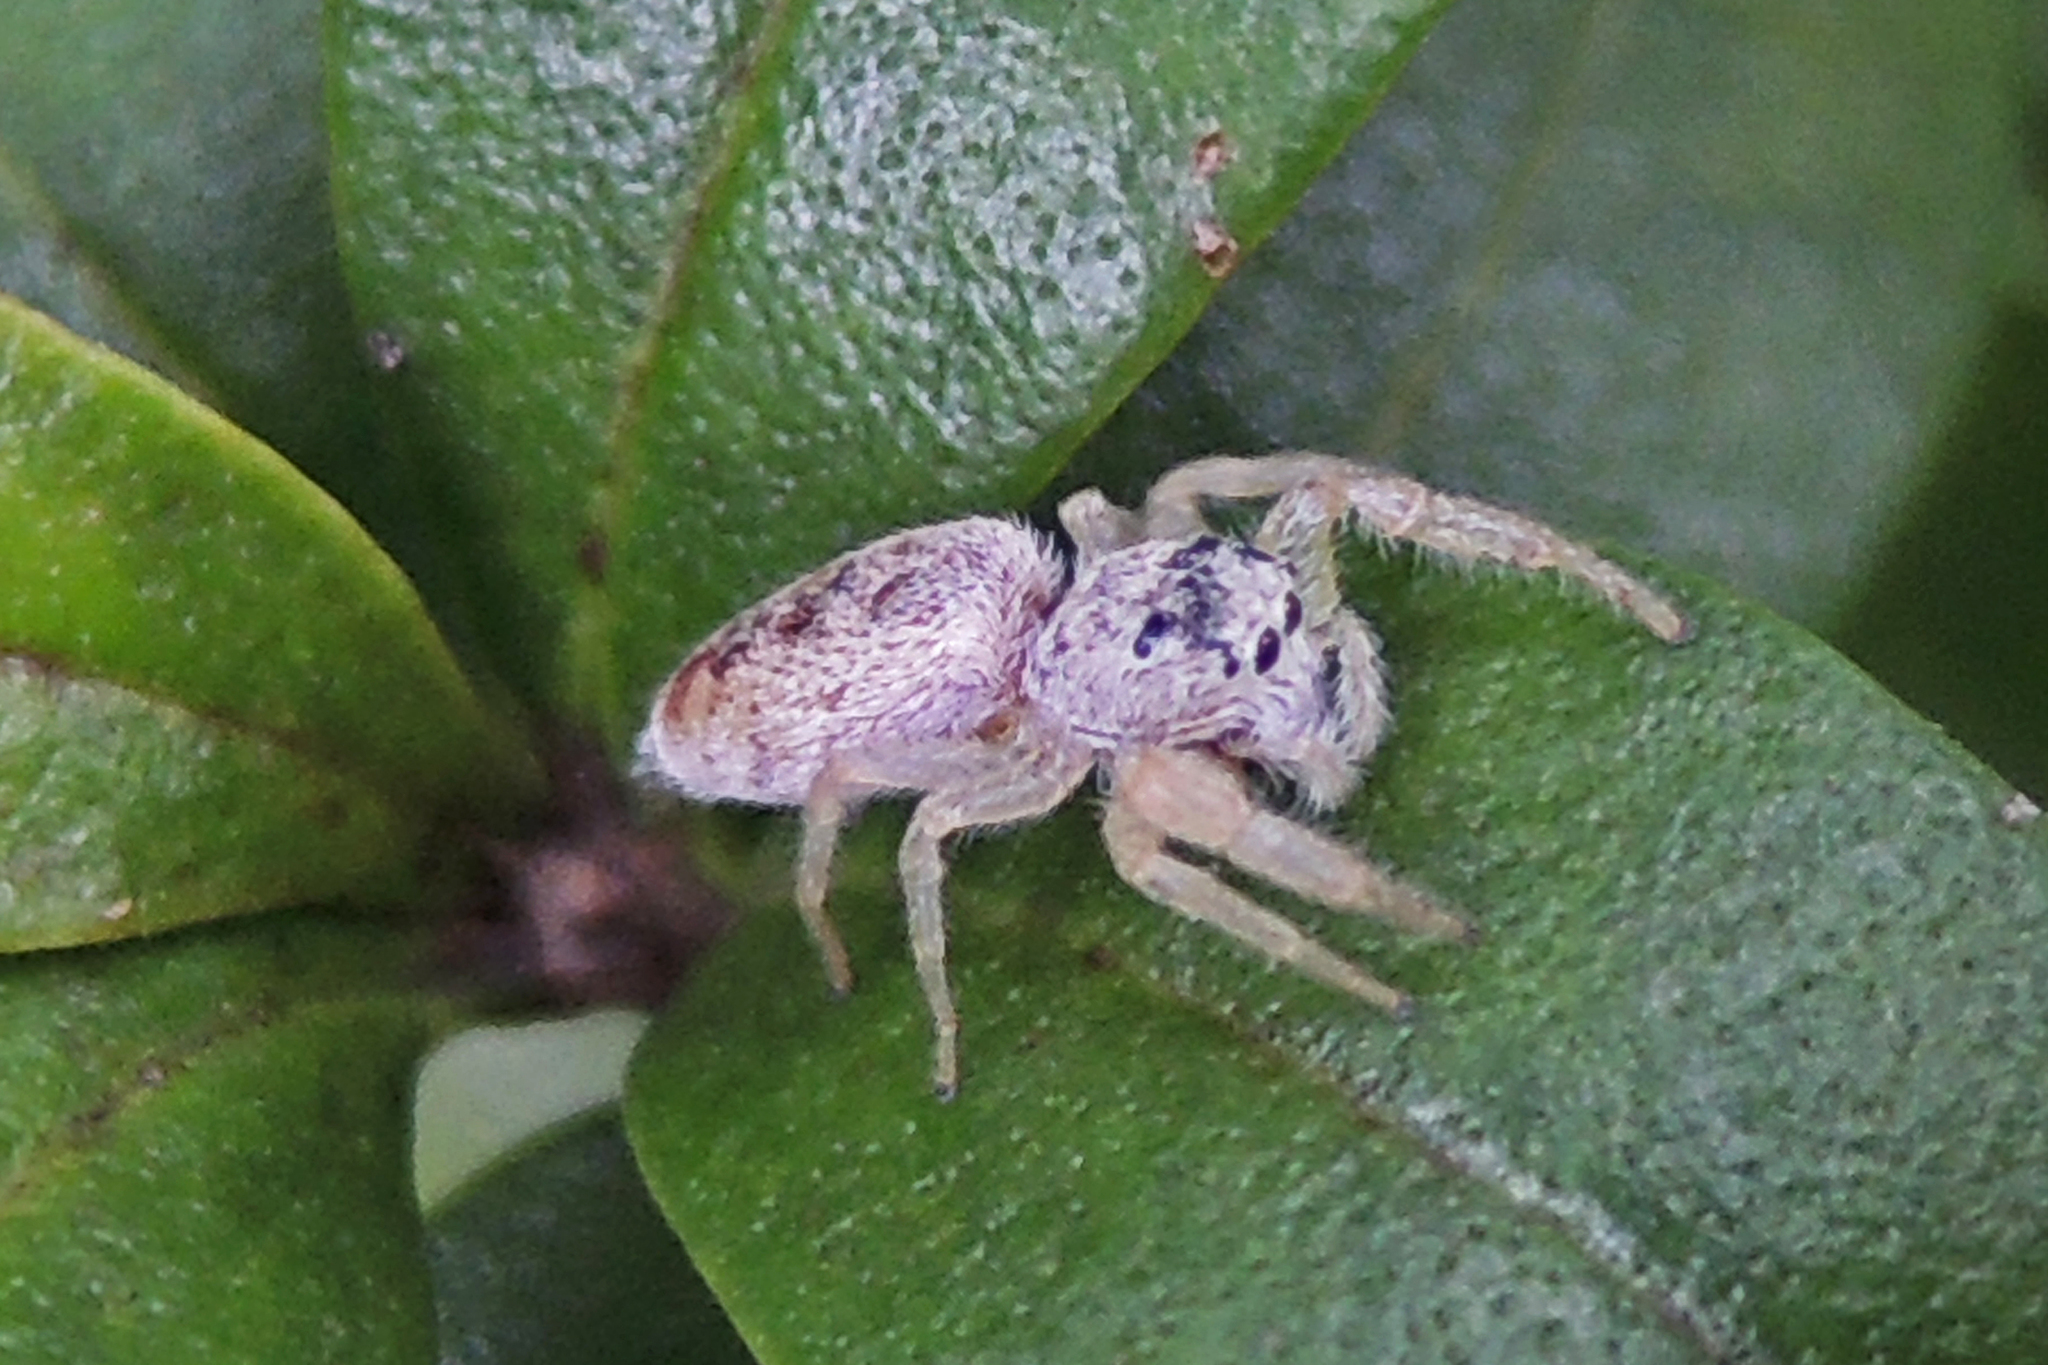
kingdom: Animalia
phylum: Arthropoda
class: Arachnida
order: Araneae
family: Salticidae
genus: Hentzia
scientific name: Hentzia mitrata
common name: White-jawed jumping spider
